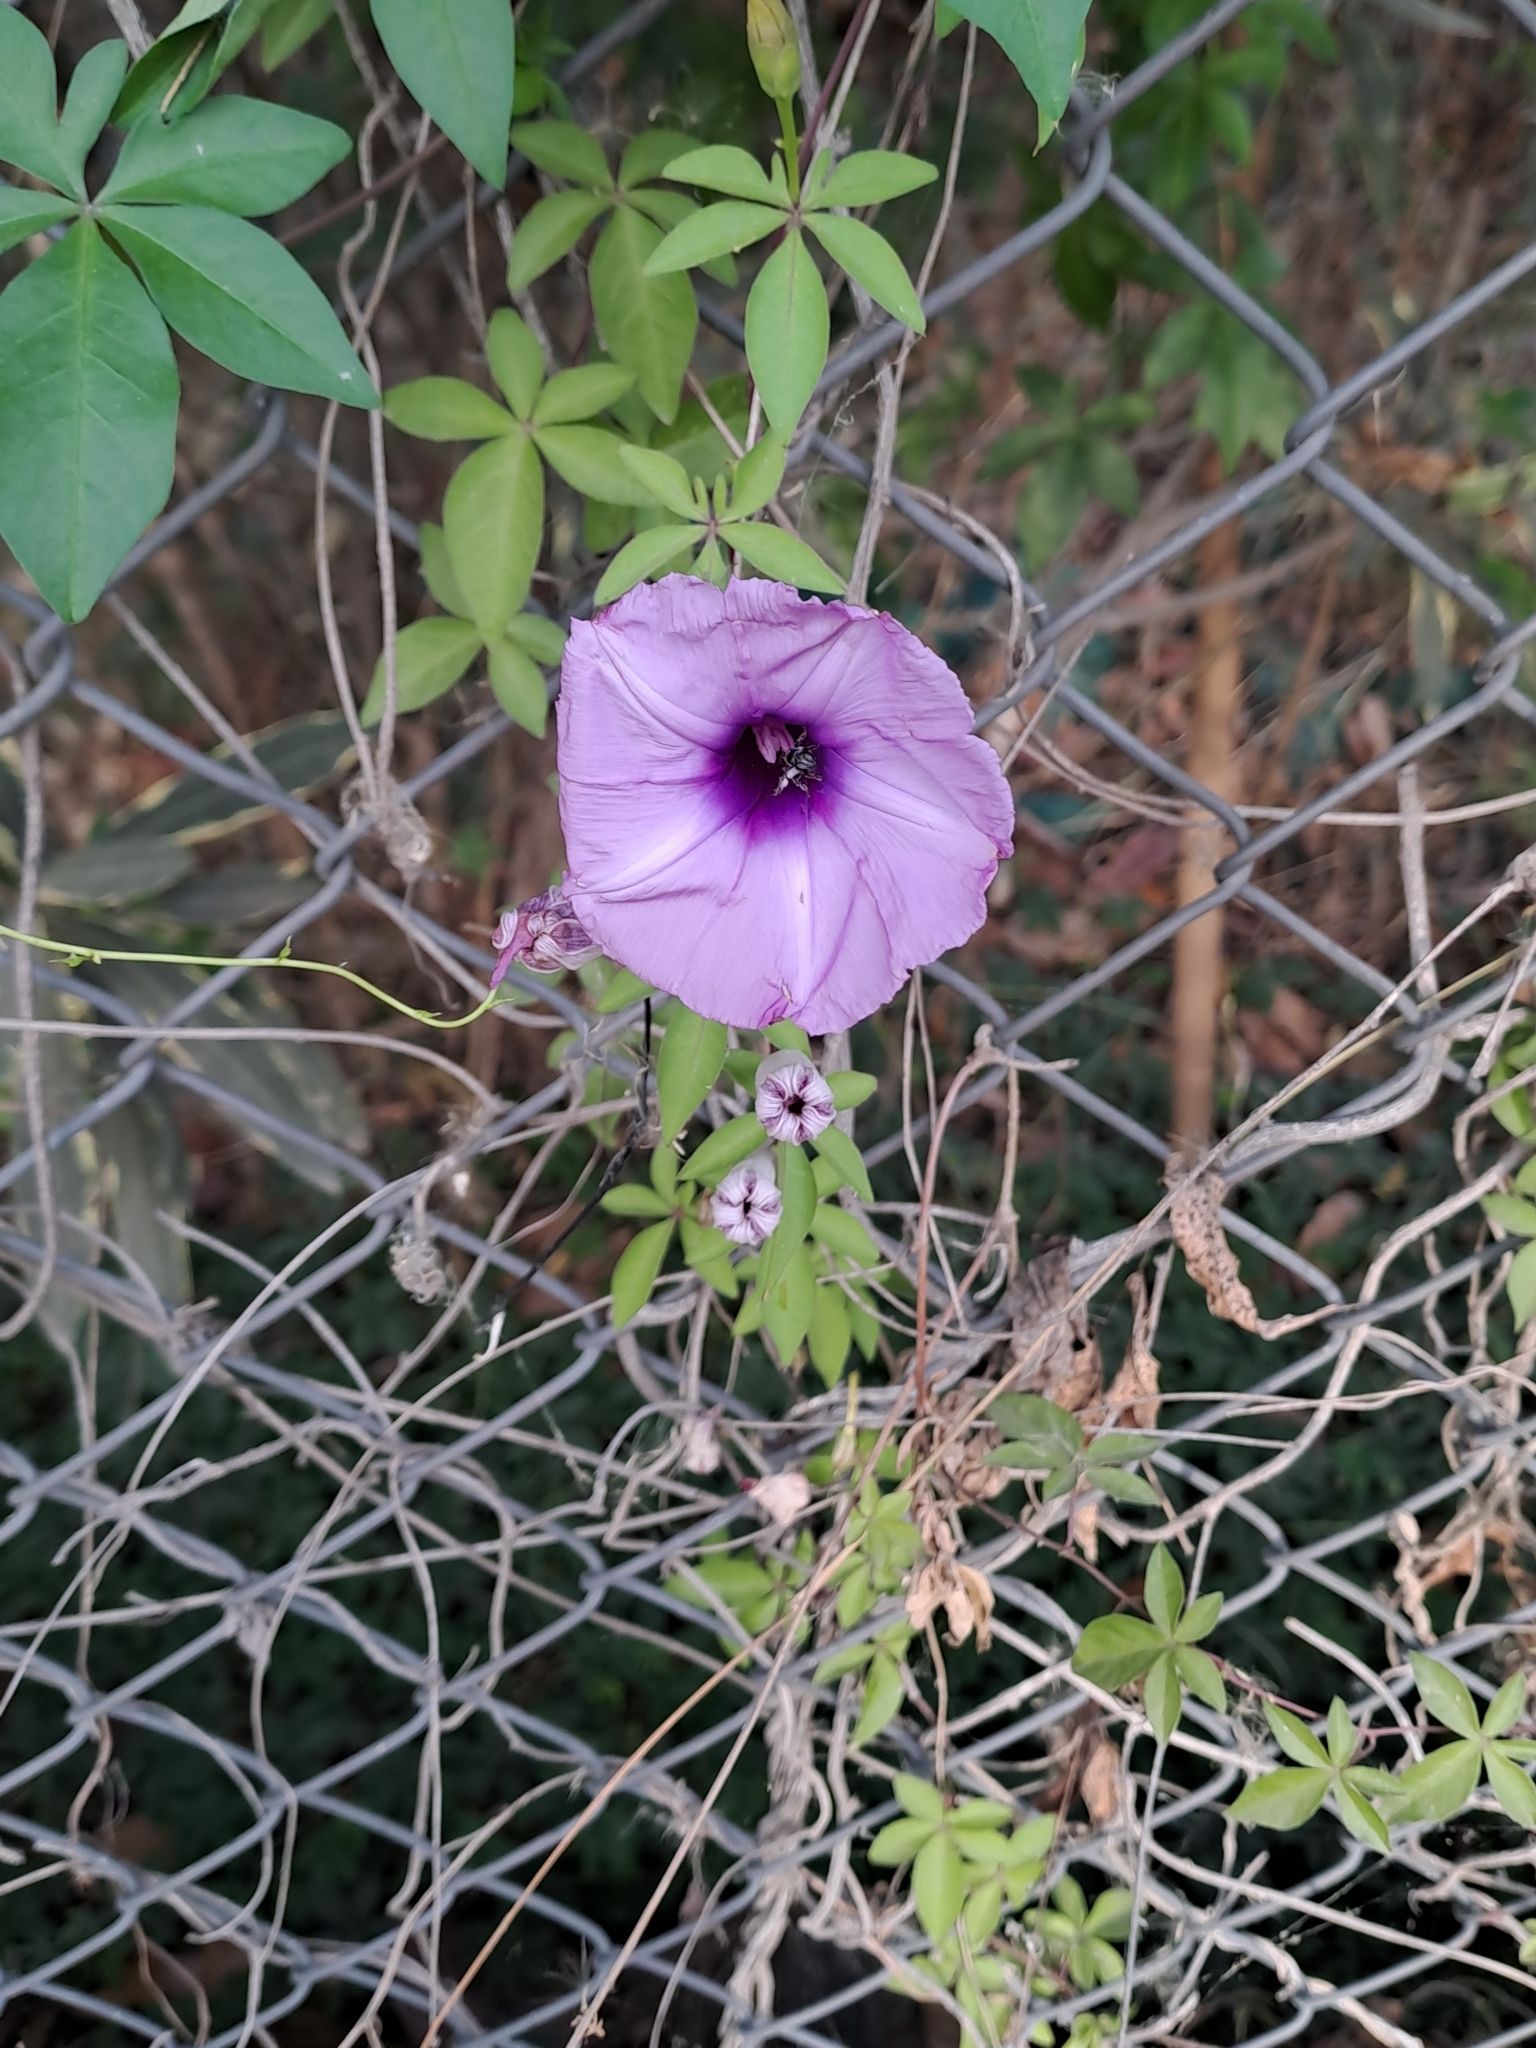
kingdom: Plantae
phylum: Tracheophyta
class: Magnoliopsida
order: Solanales
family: Convolvulaceae
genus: Ipomoea
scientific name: Ipomoea cairica
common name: Mile a minute vine
